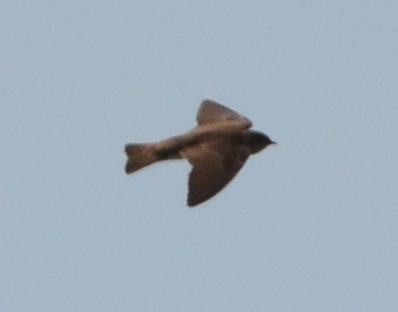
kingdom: Animalia
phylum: Chordata
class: Aves
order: Passeriformes
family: Hirundinidae
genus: Stelgidopteryx
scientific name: Stelgidopteryx serripennis
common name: Northern rough-winged swallow
